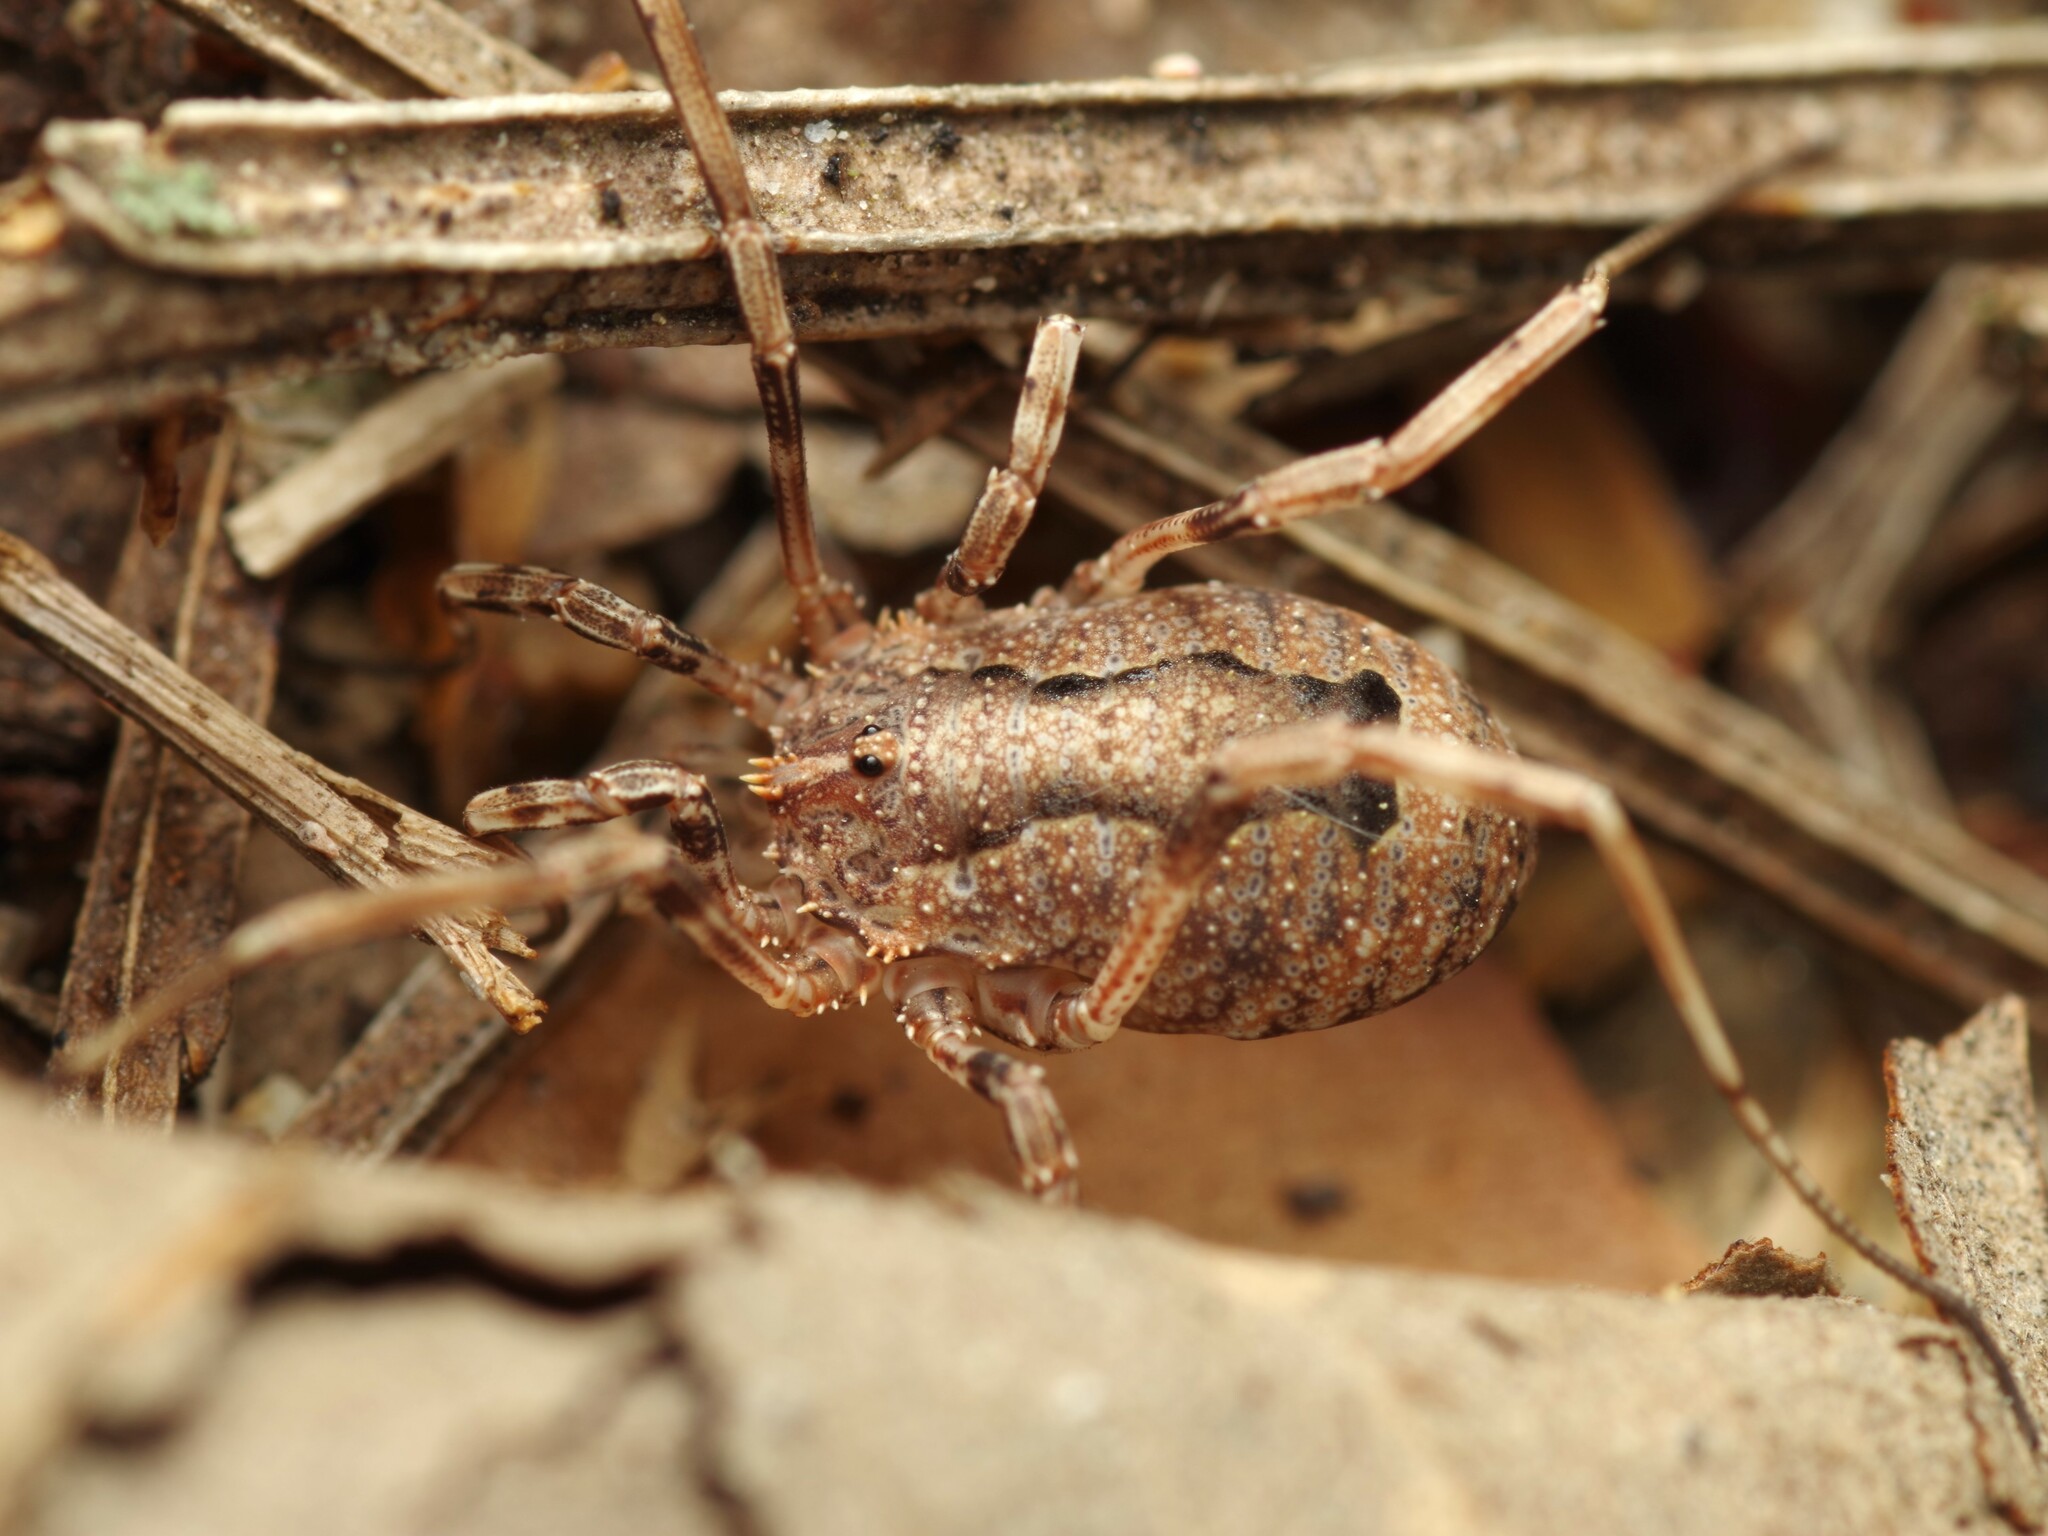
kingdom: Animalia
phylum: Arthropoda
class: Arachnida
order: Opiliones
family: Phalangiidae
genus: Odiellus
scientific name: Odiellus spinosus
